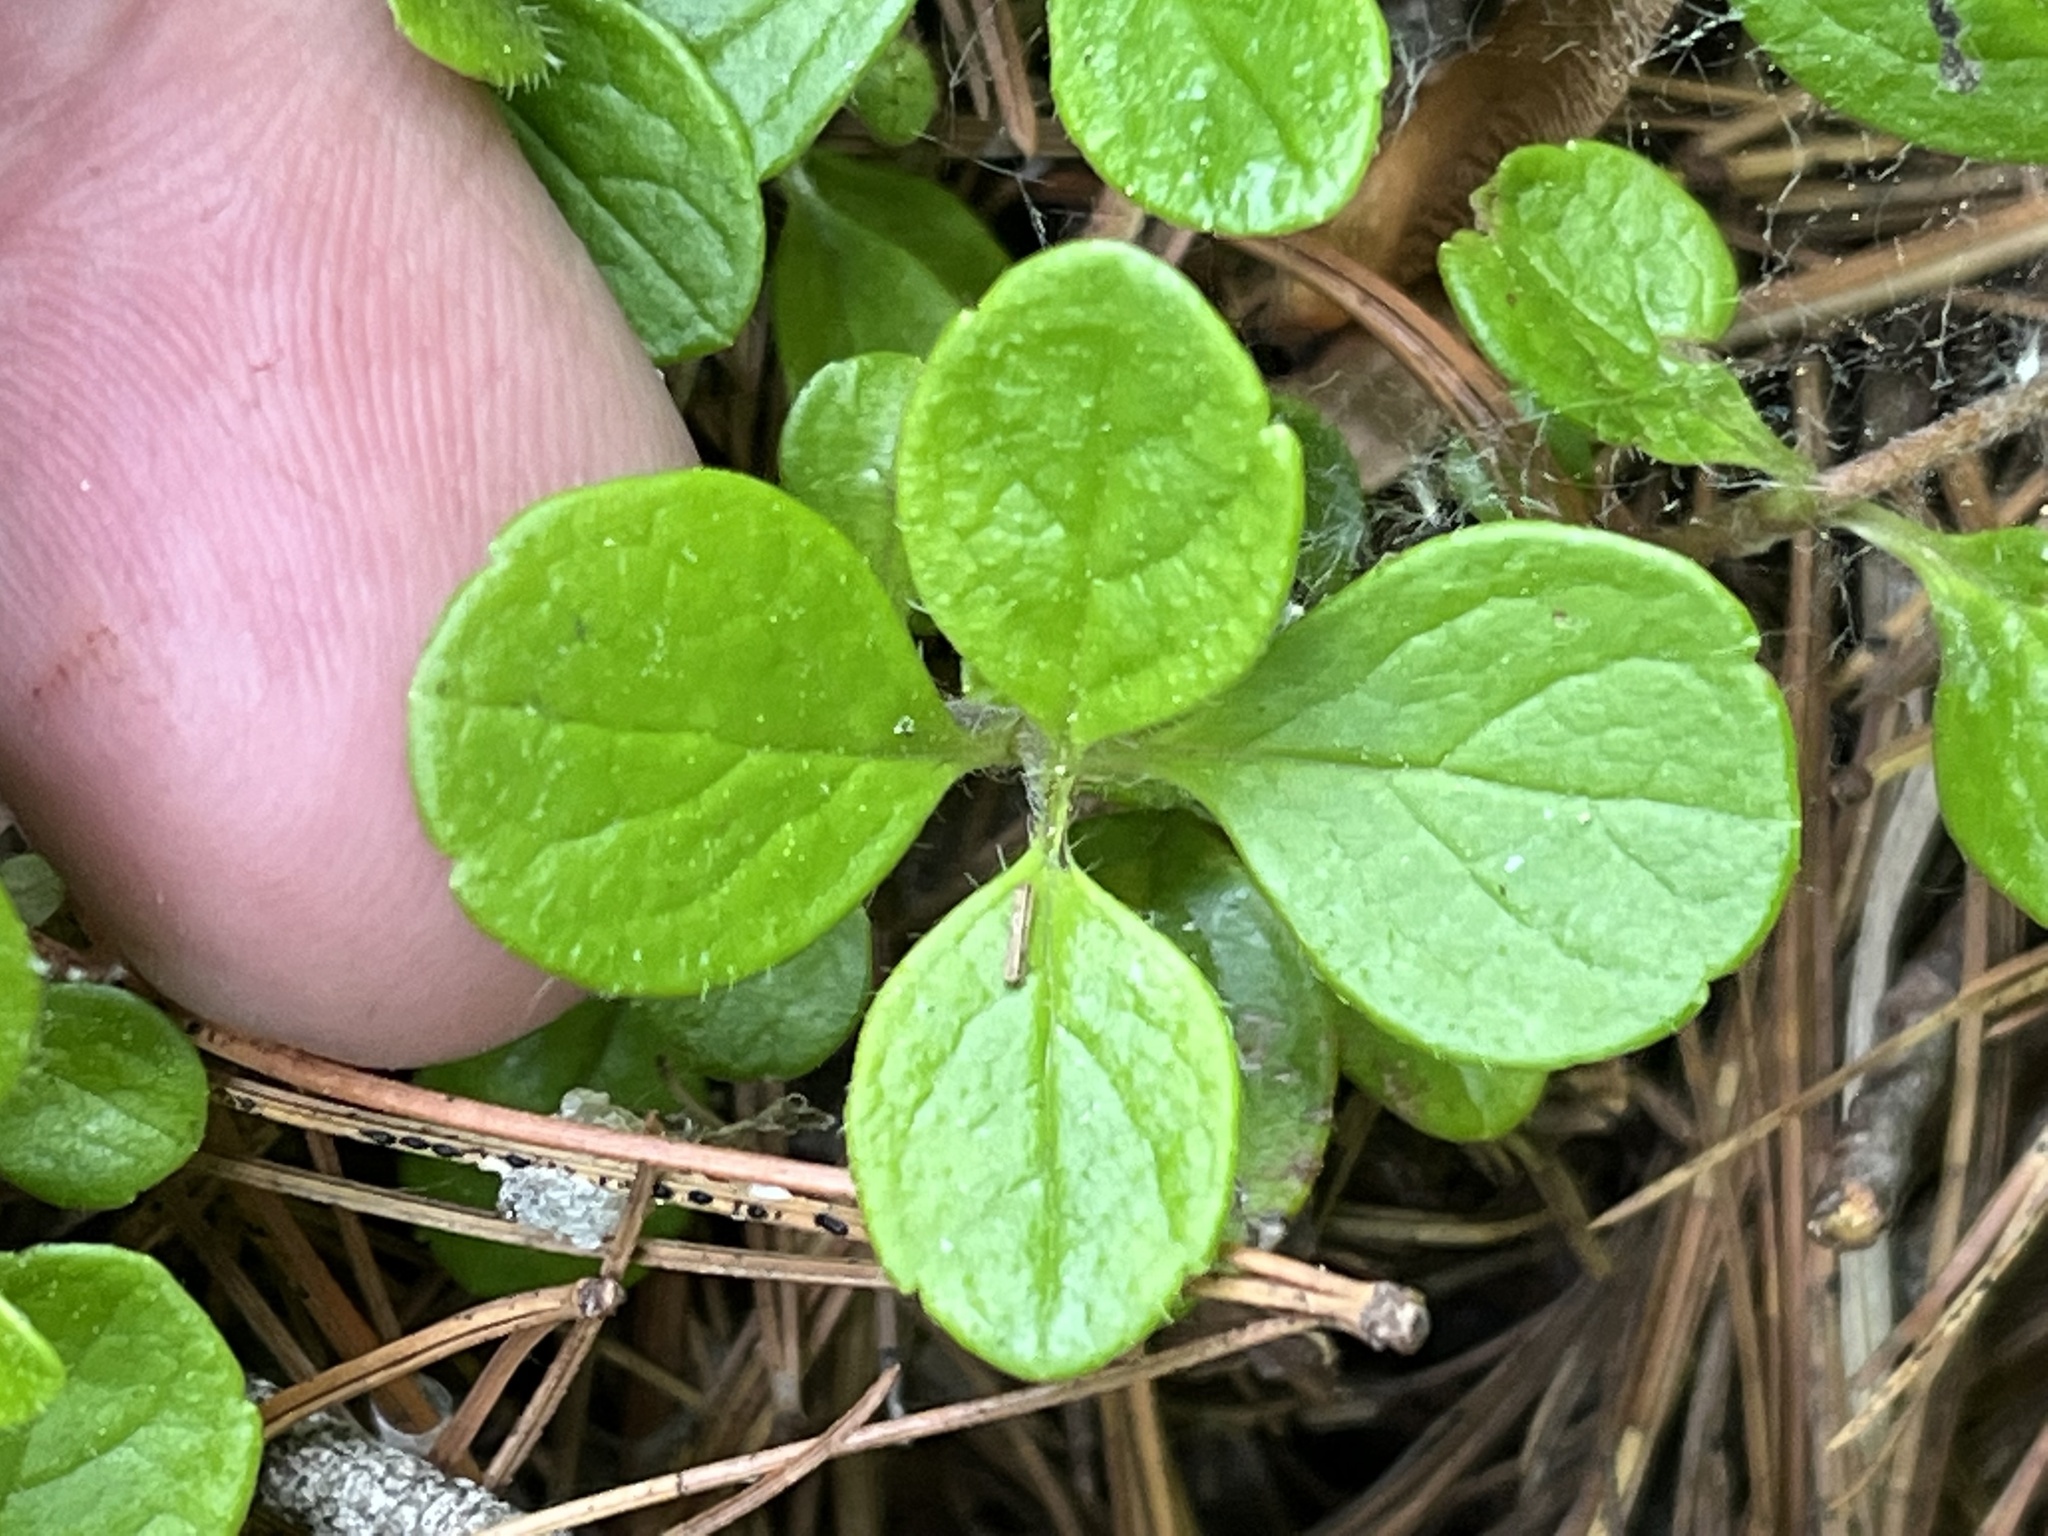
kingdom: Plantae
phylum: Tracheophyta
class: Magnoliopsida
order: Dipsacales
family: Caprifoliaceae
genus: Linnaea
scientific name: Linnaea borealis
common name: Twinflower
